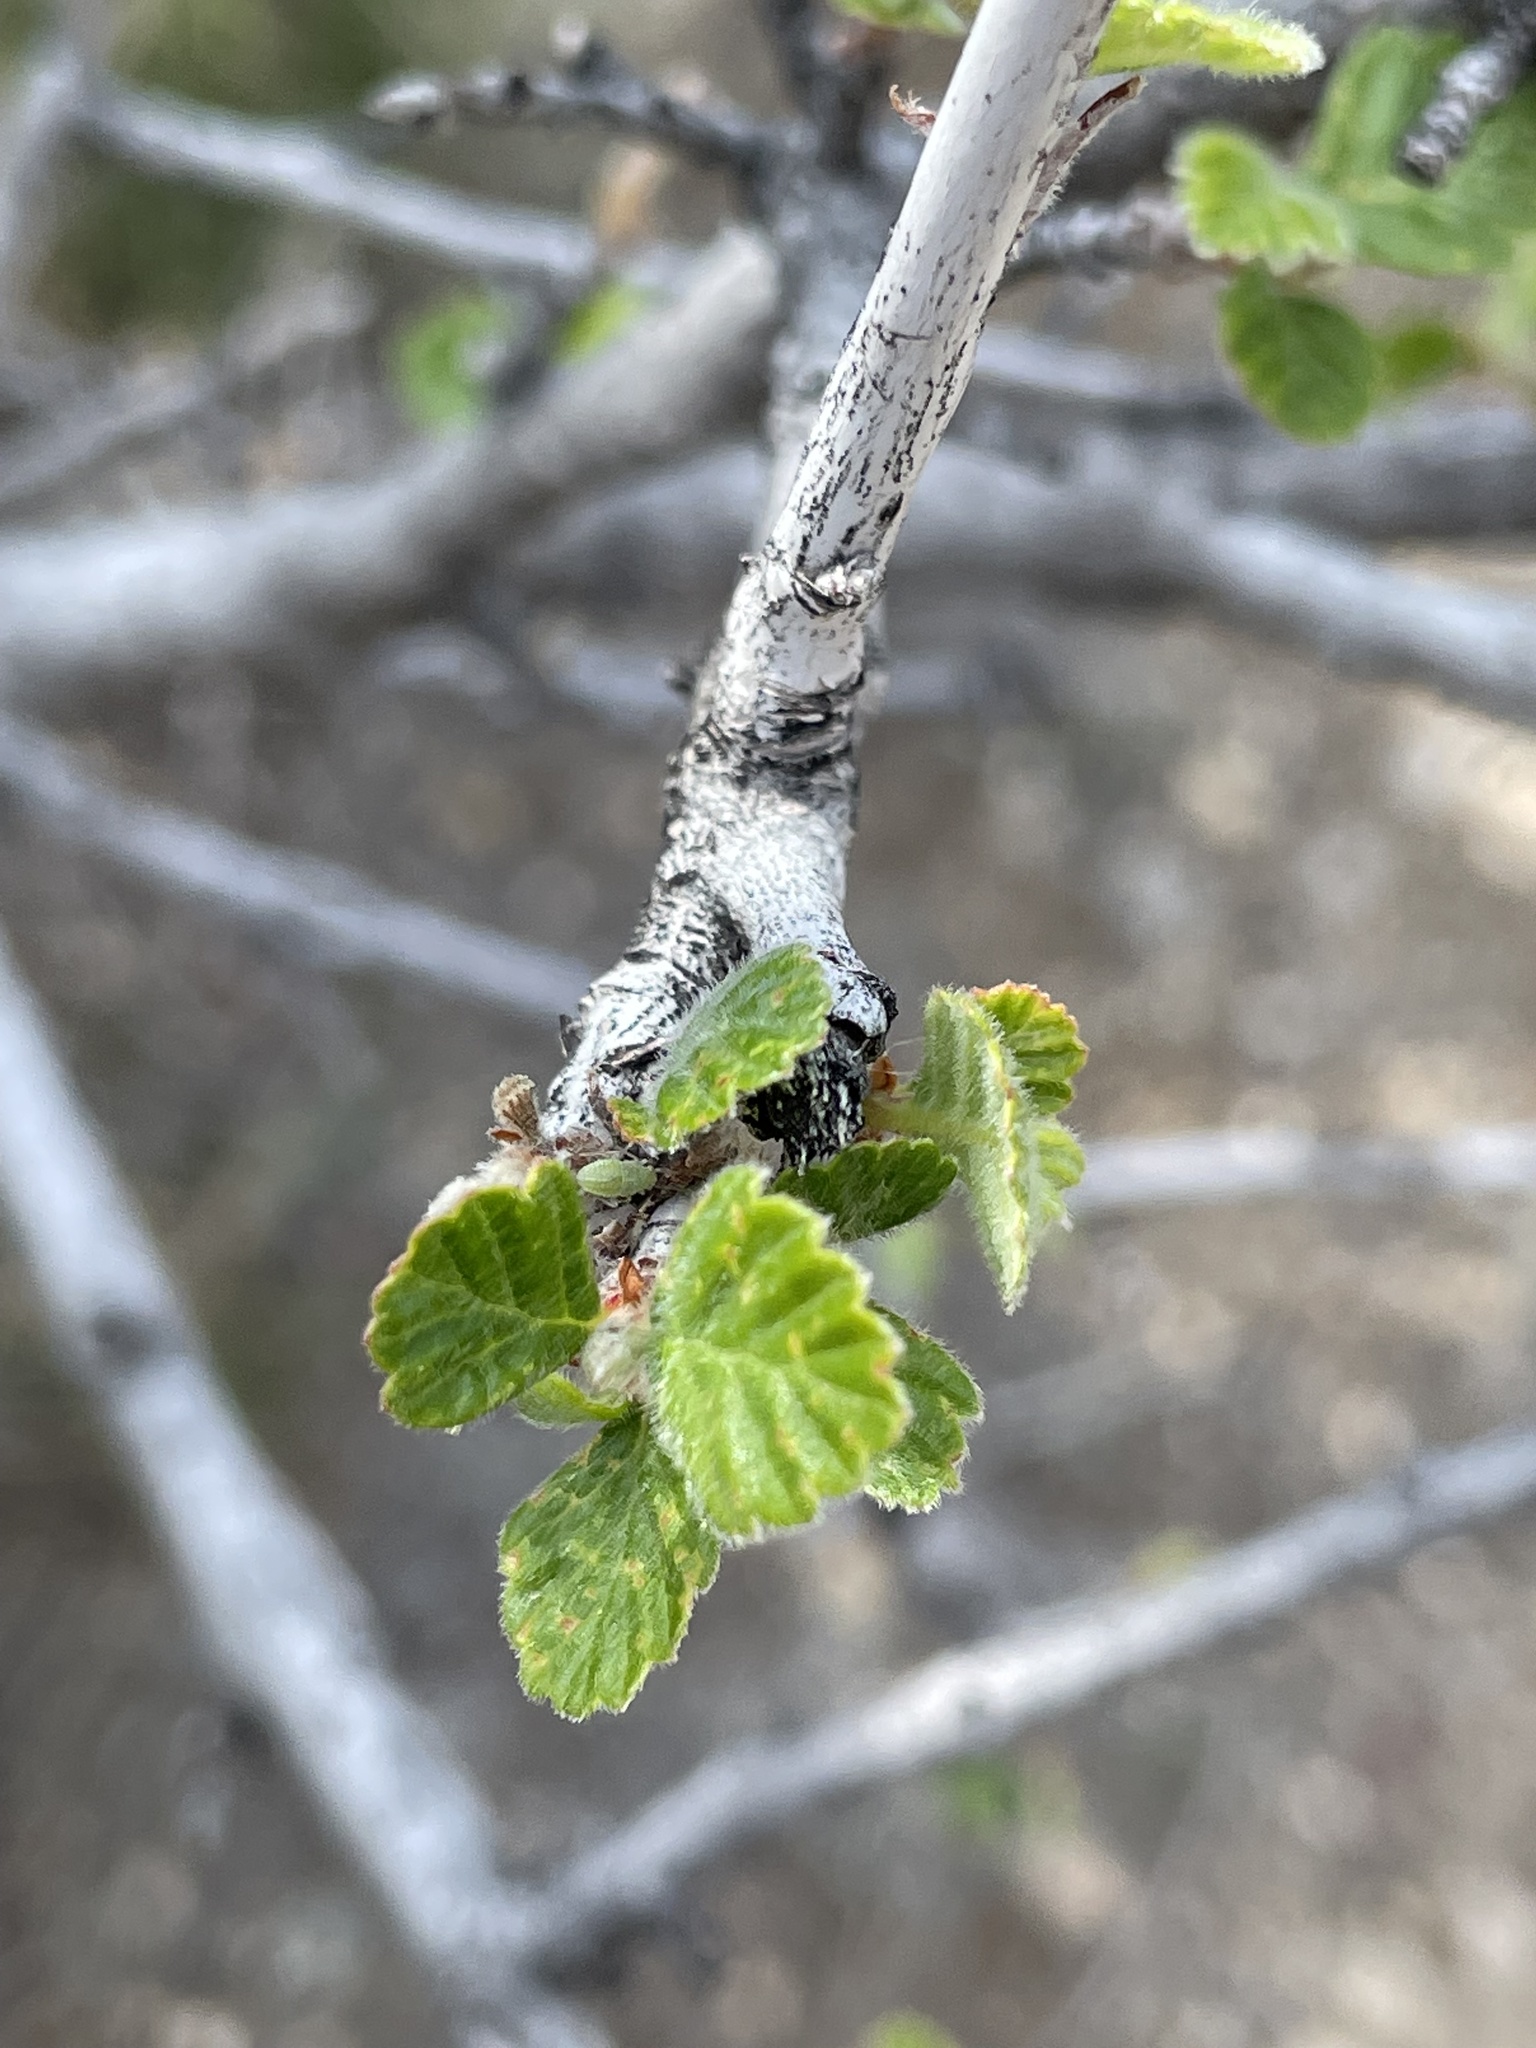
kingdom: Plantae
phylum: Tracheophyta
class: Magnoliopsida
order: Rosales
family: Rosaceae
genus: Cercocarpus
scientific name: Cercocarpus montanus
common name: Alder-leaf cercocarpus
